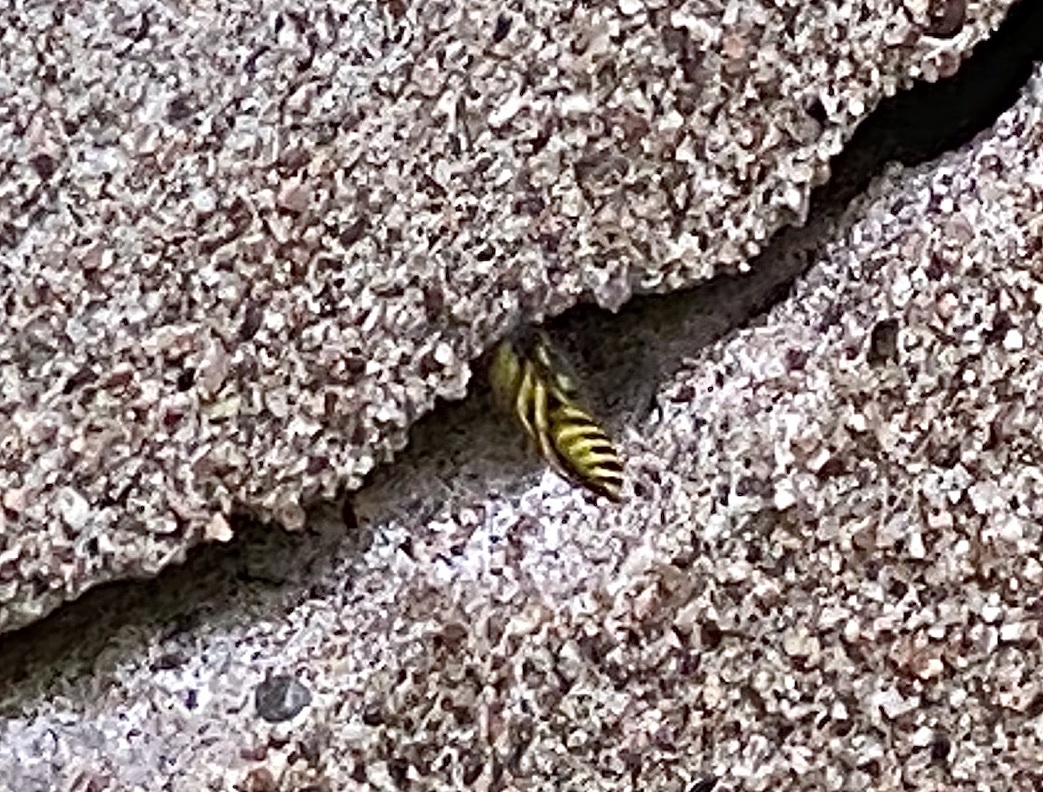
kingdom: Animalia
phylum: Arthropoda
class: Insecta
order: Hymenoptera
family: Vespidae
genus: Vespula
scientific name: Vespula maculifrons
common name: Eastern yellowjacket
